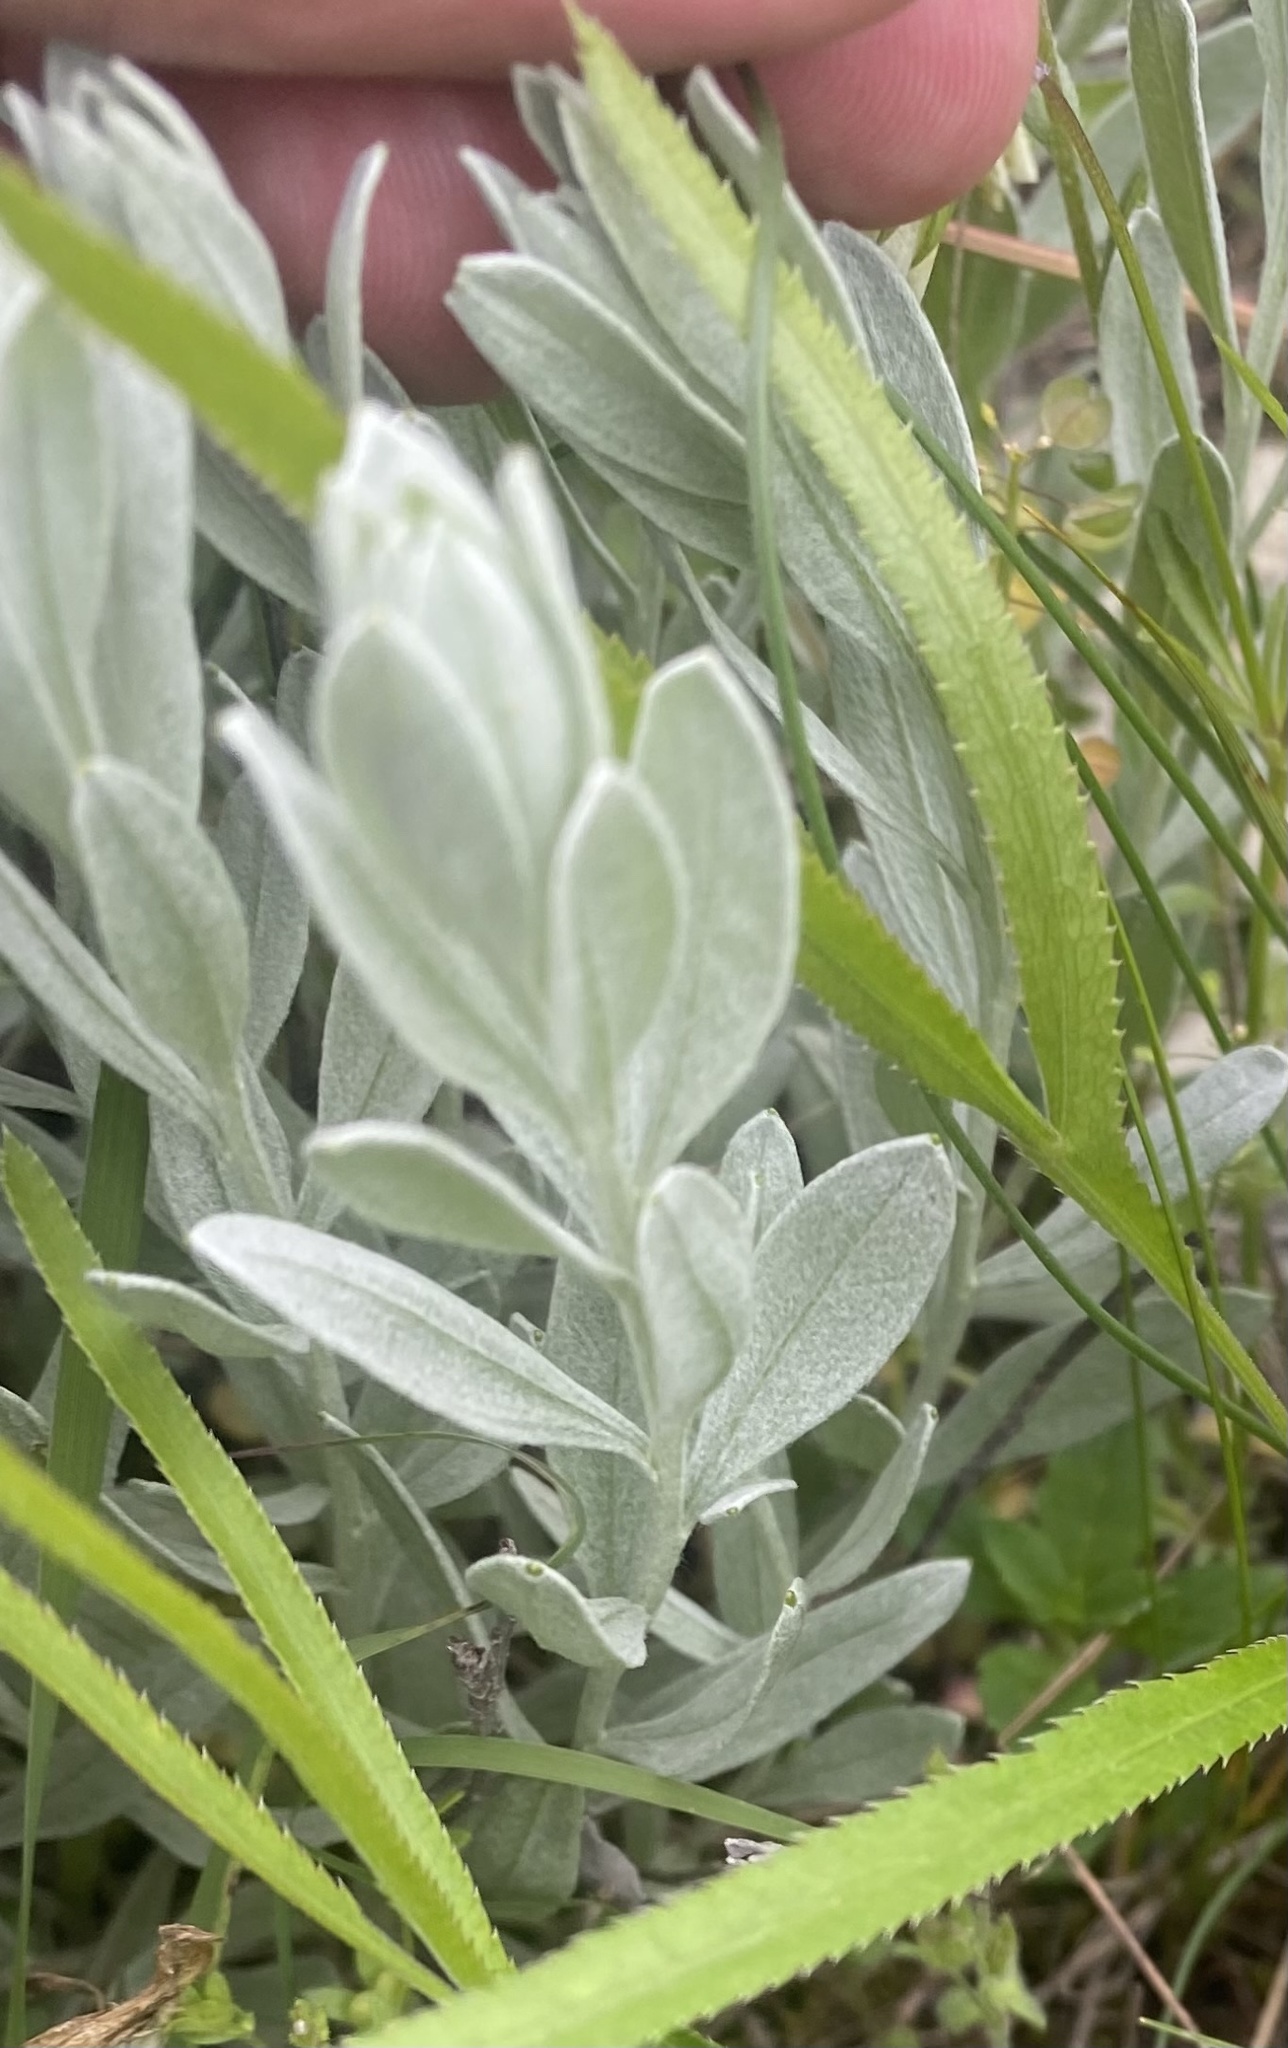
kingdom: Plantae
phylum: Tracheophyta
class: Magnoliopsida
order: Asterales
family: Asteraceae
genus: Galatella
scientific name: Galatella villosa
